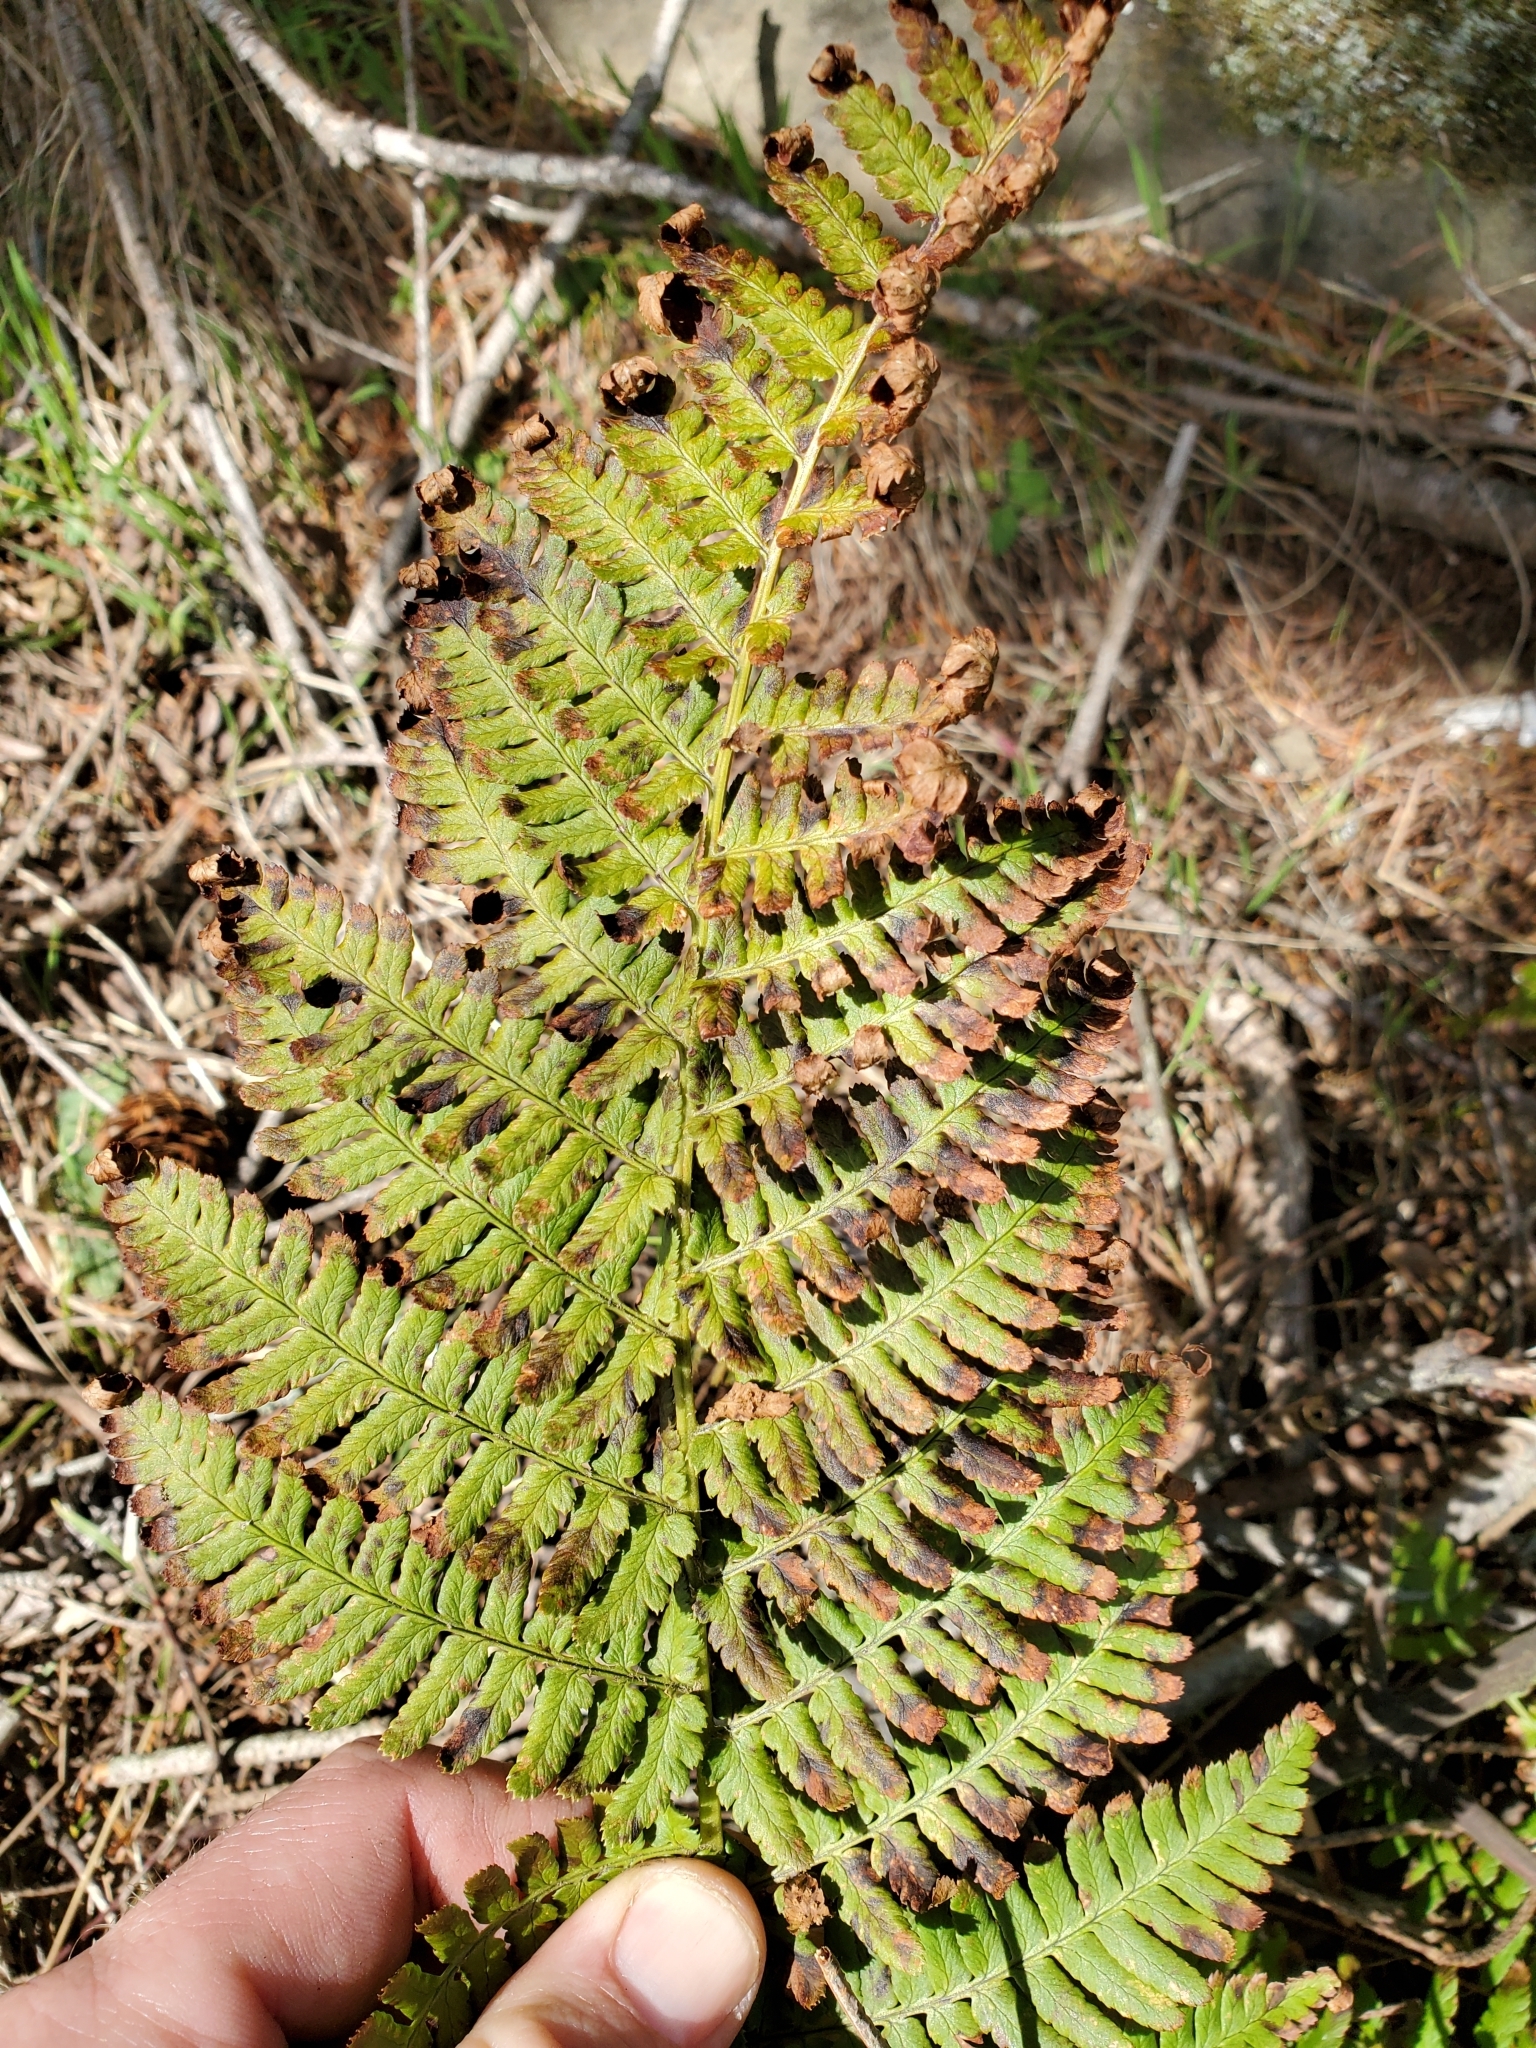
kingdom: Plantae
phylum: Tracheophyta
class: Polypodiopsida
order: Polypodiales
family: Dryopteridaceae
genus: Dryopteris
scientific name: Dryopteris arguta
